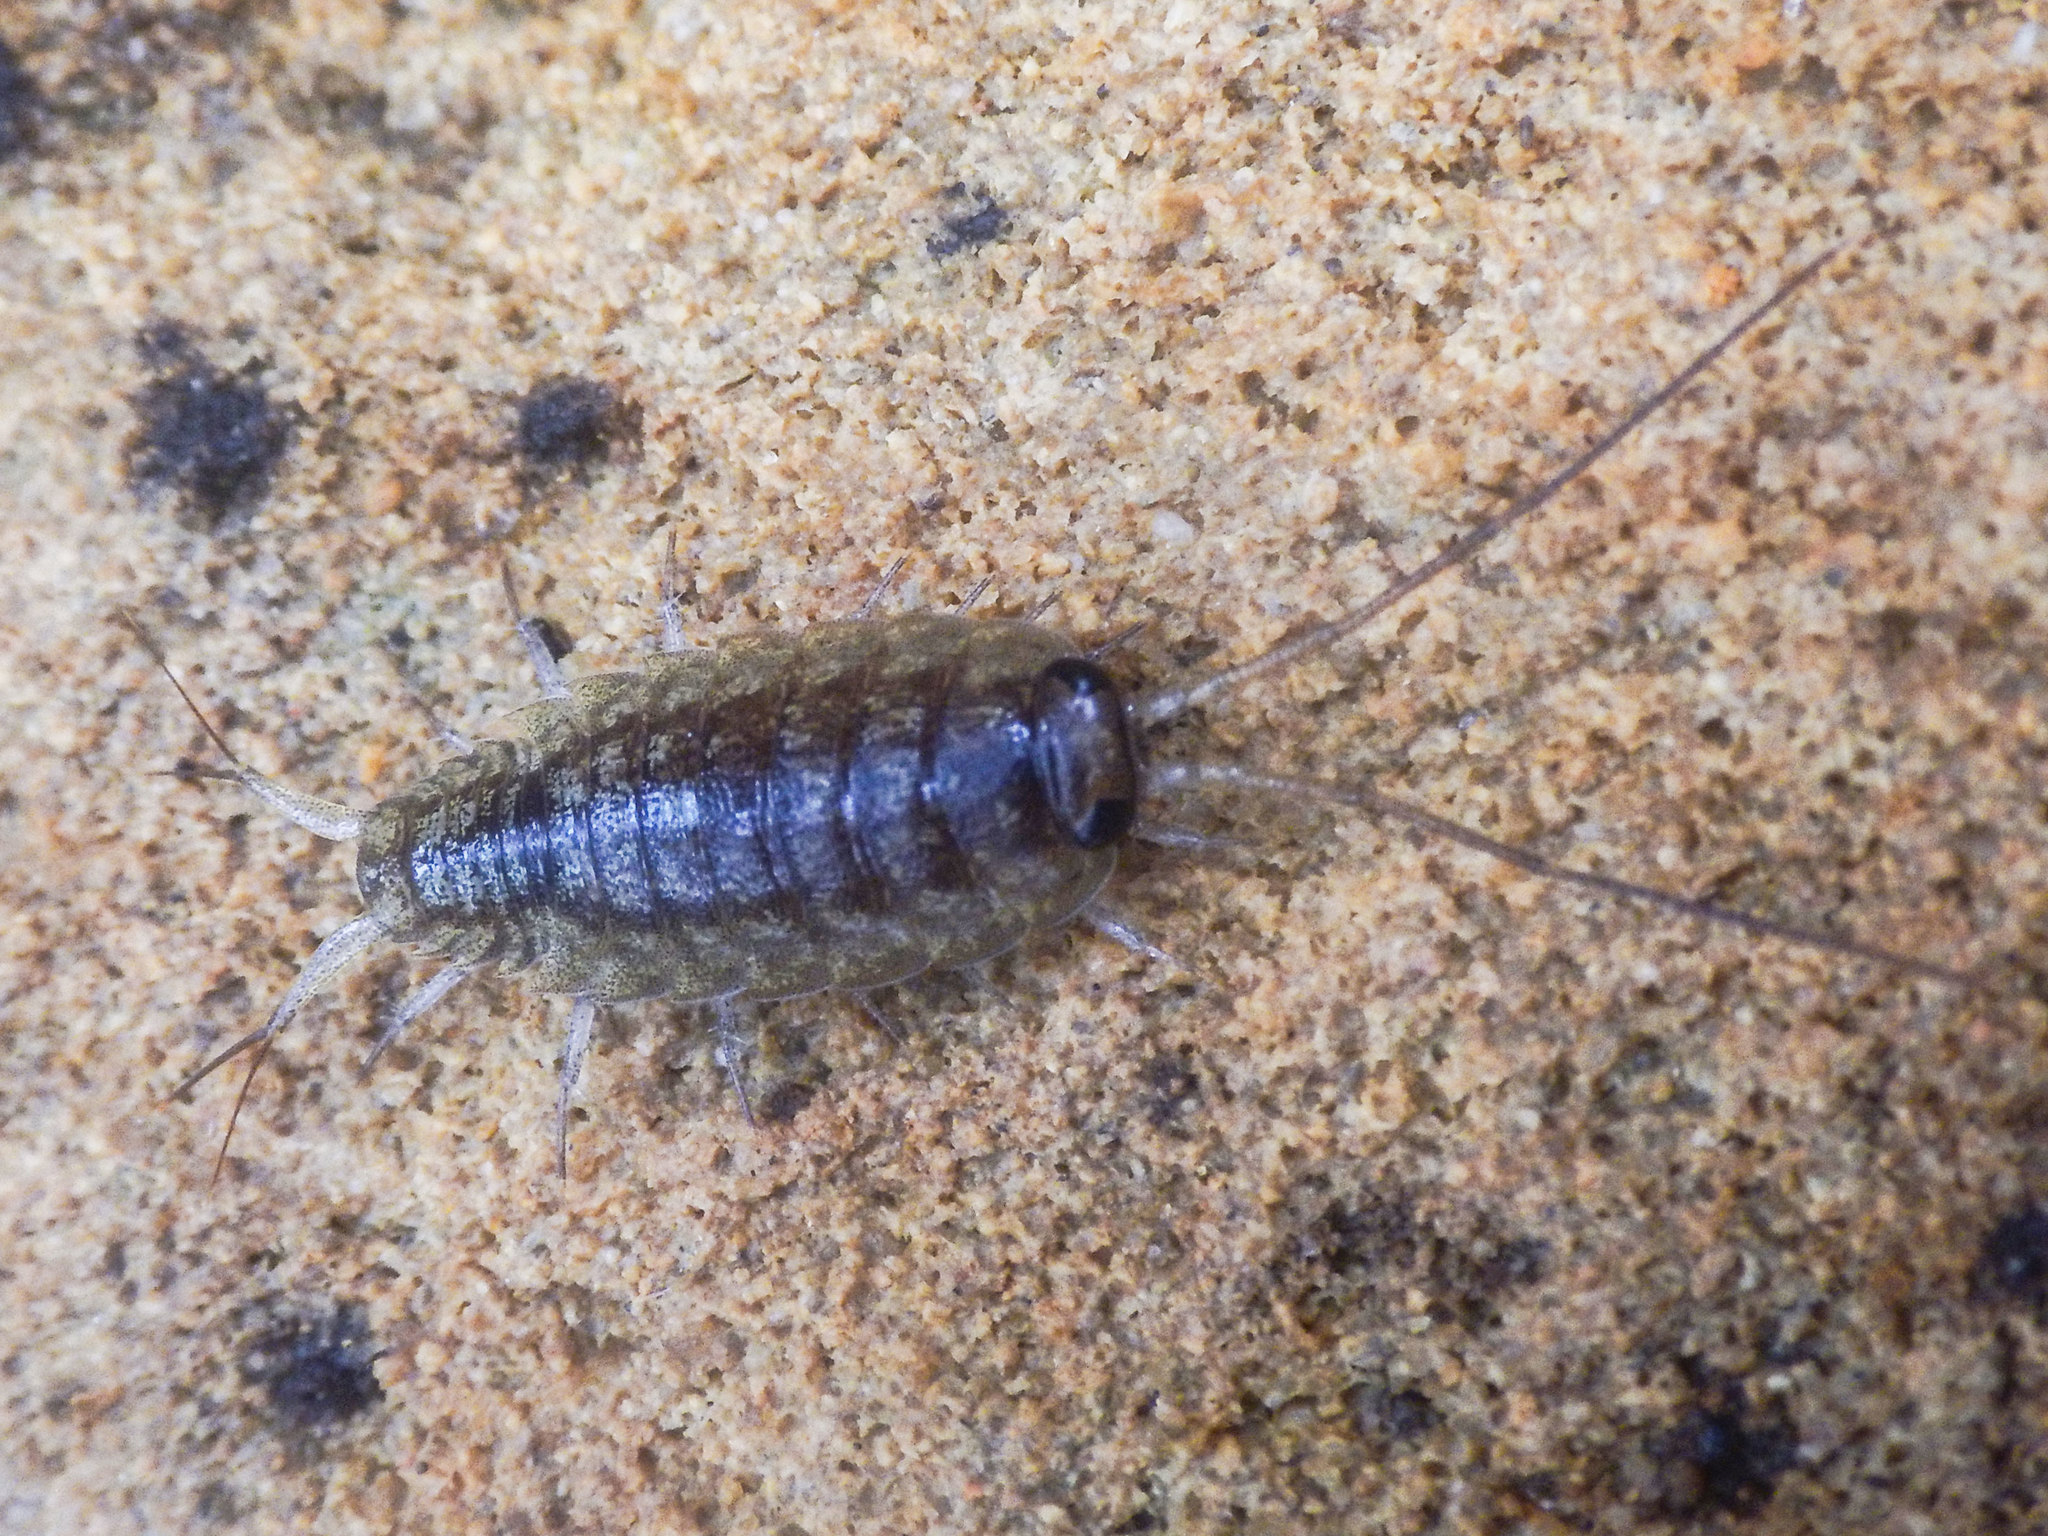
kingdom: Animalia
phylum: Arthropoda
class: Malacostraca
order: Isopoda
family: Ligiidae
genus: Ligia
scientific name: Ligia novizealandiae
